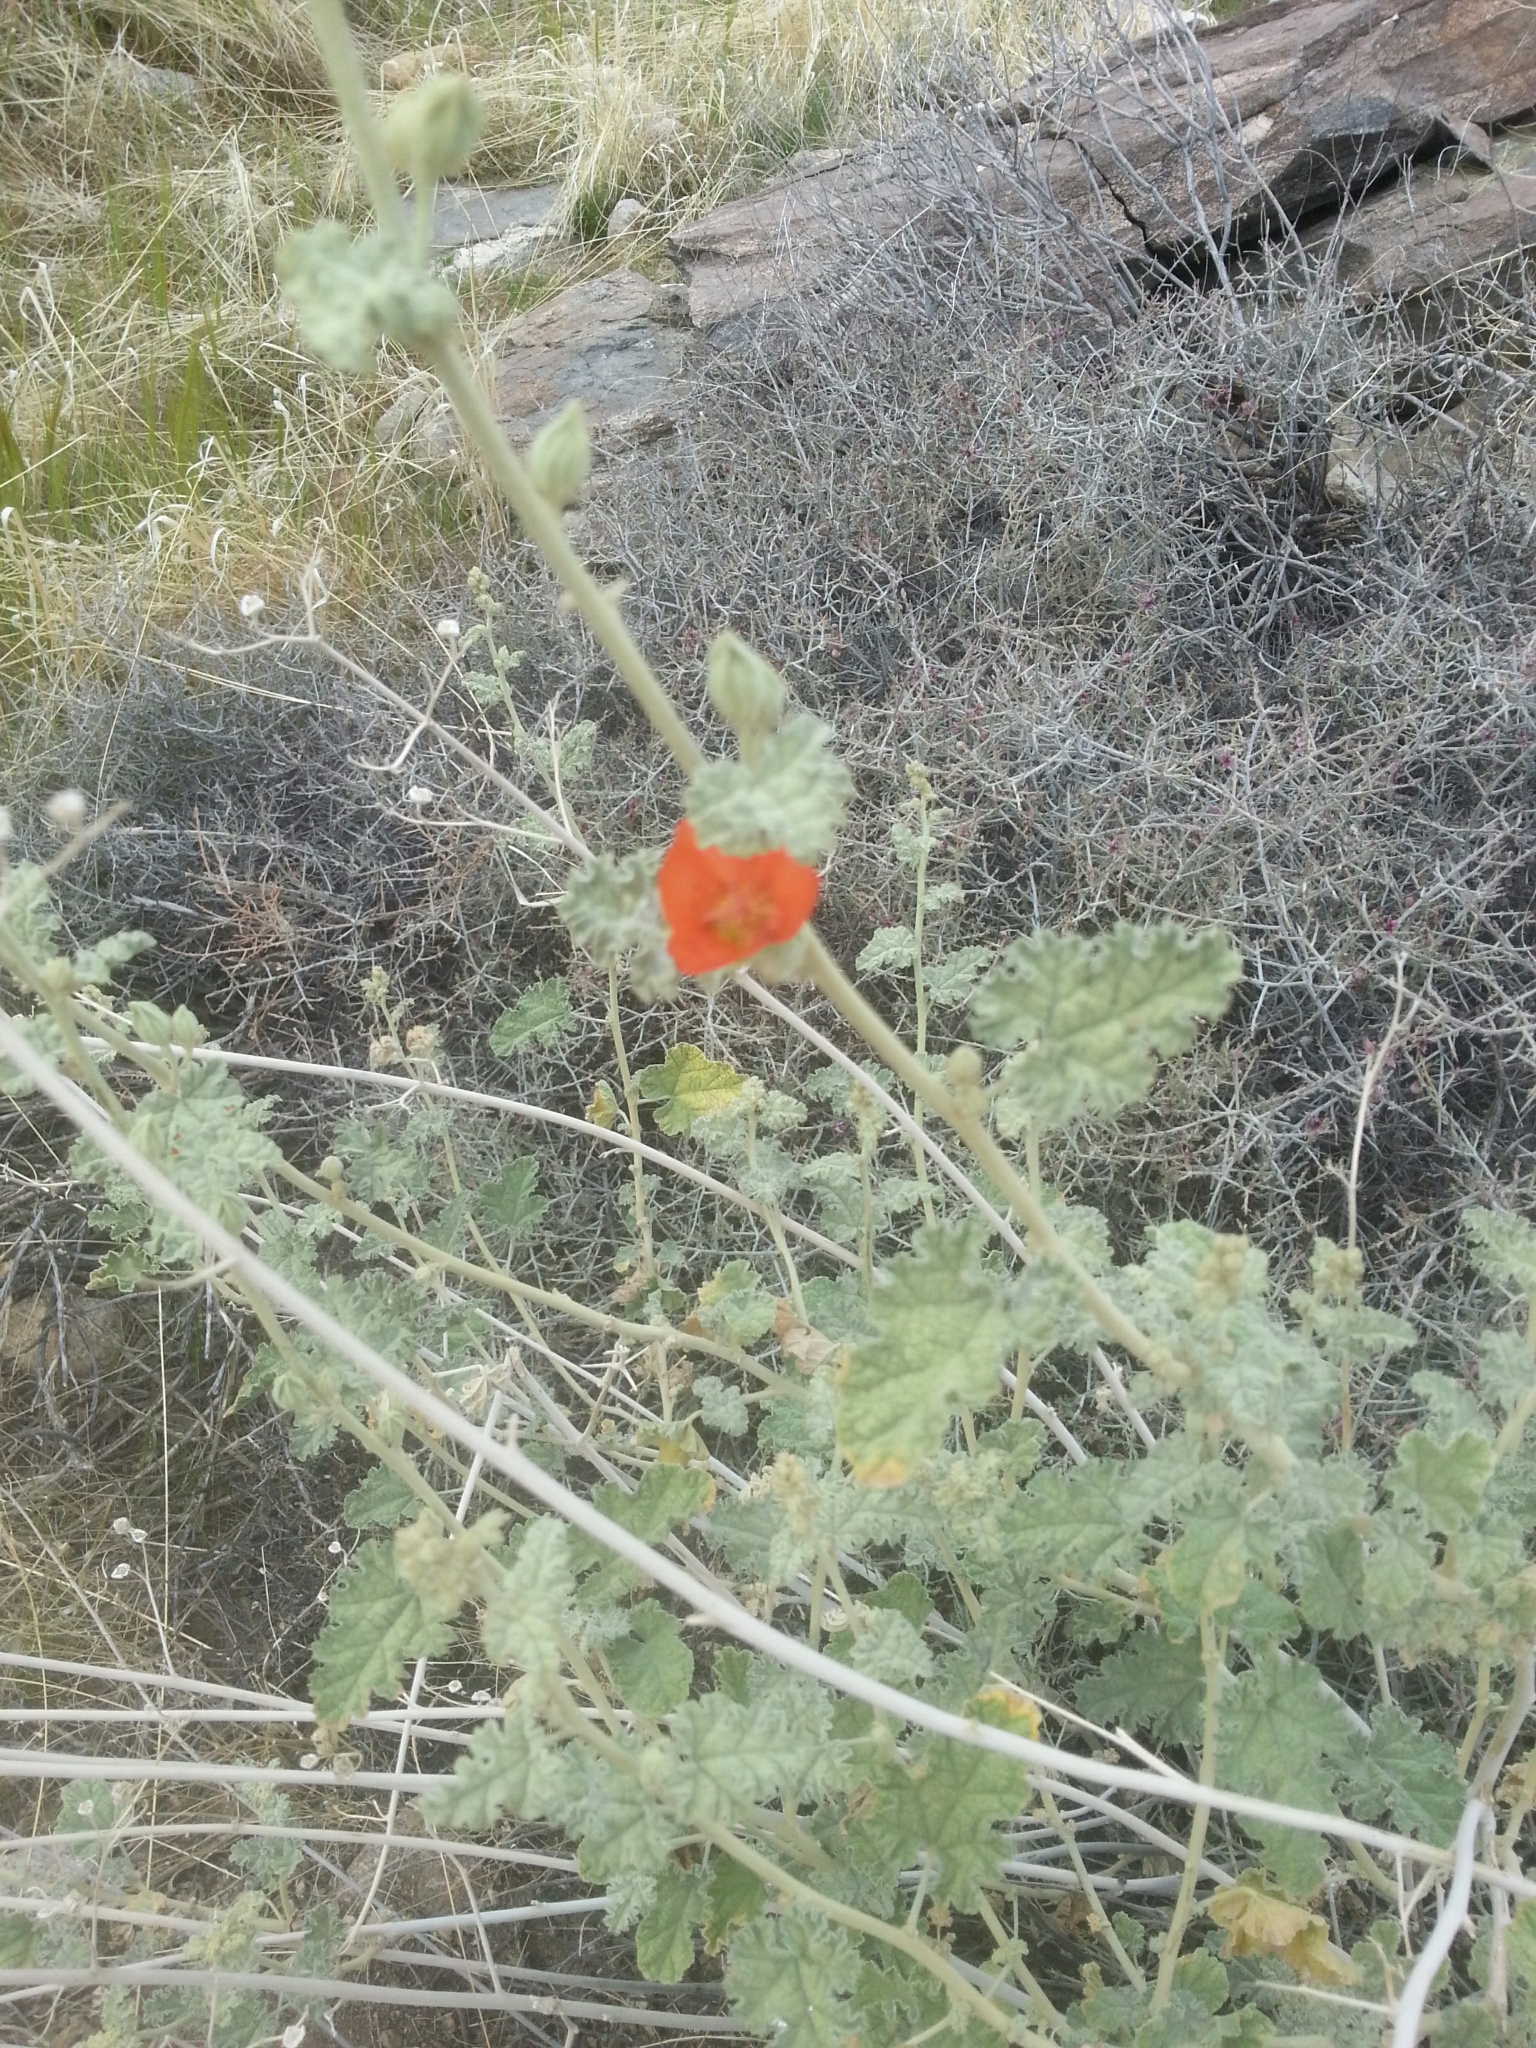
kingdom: Plantae
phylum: Tracheophyta
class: Magnoliopsida
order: Malvales
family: Malvaceae
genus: Sphaeralcea
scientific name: Sphaeralcea ambigua
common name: Apricot globe-mallow
